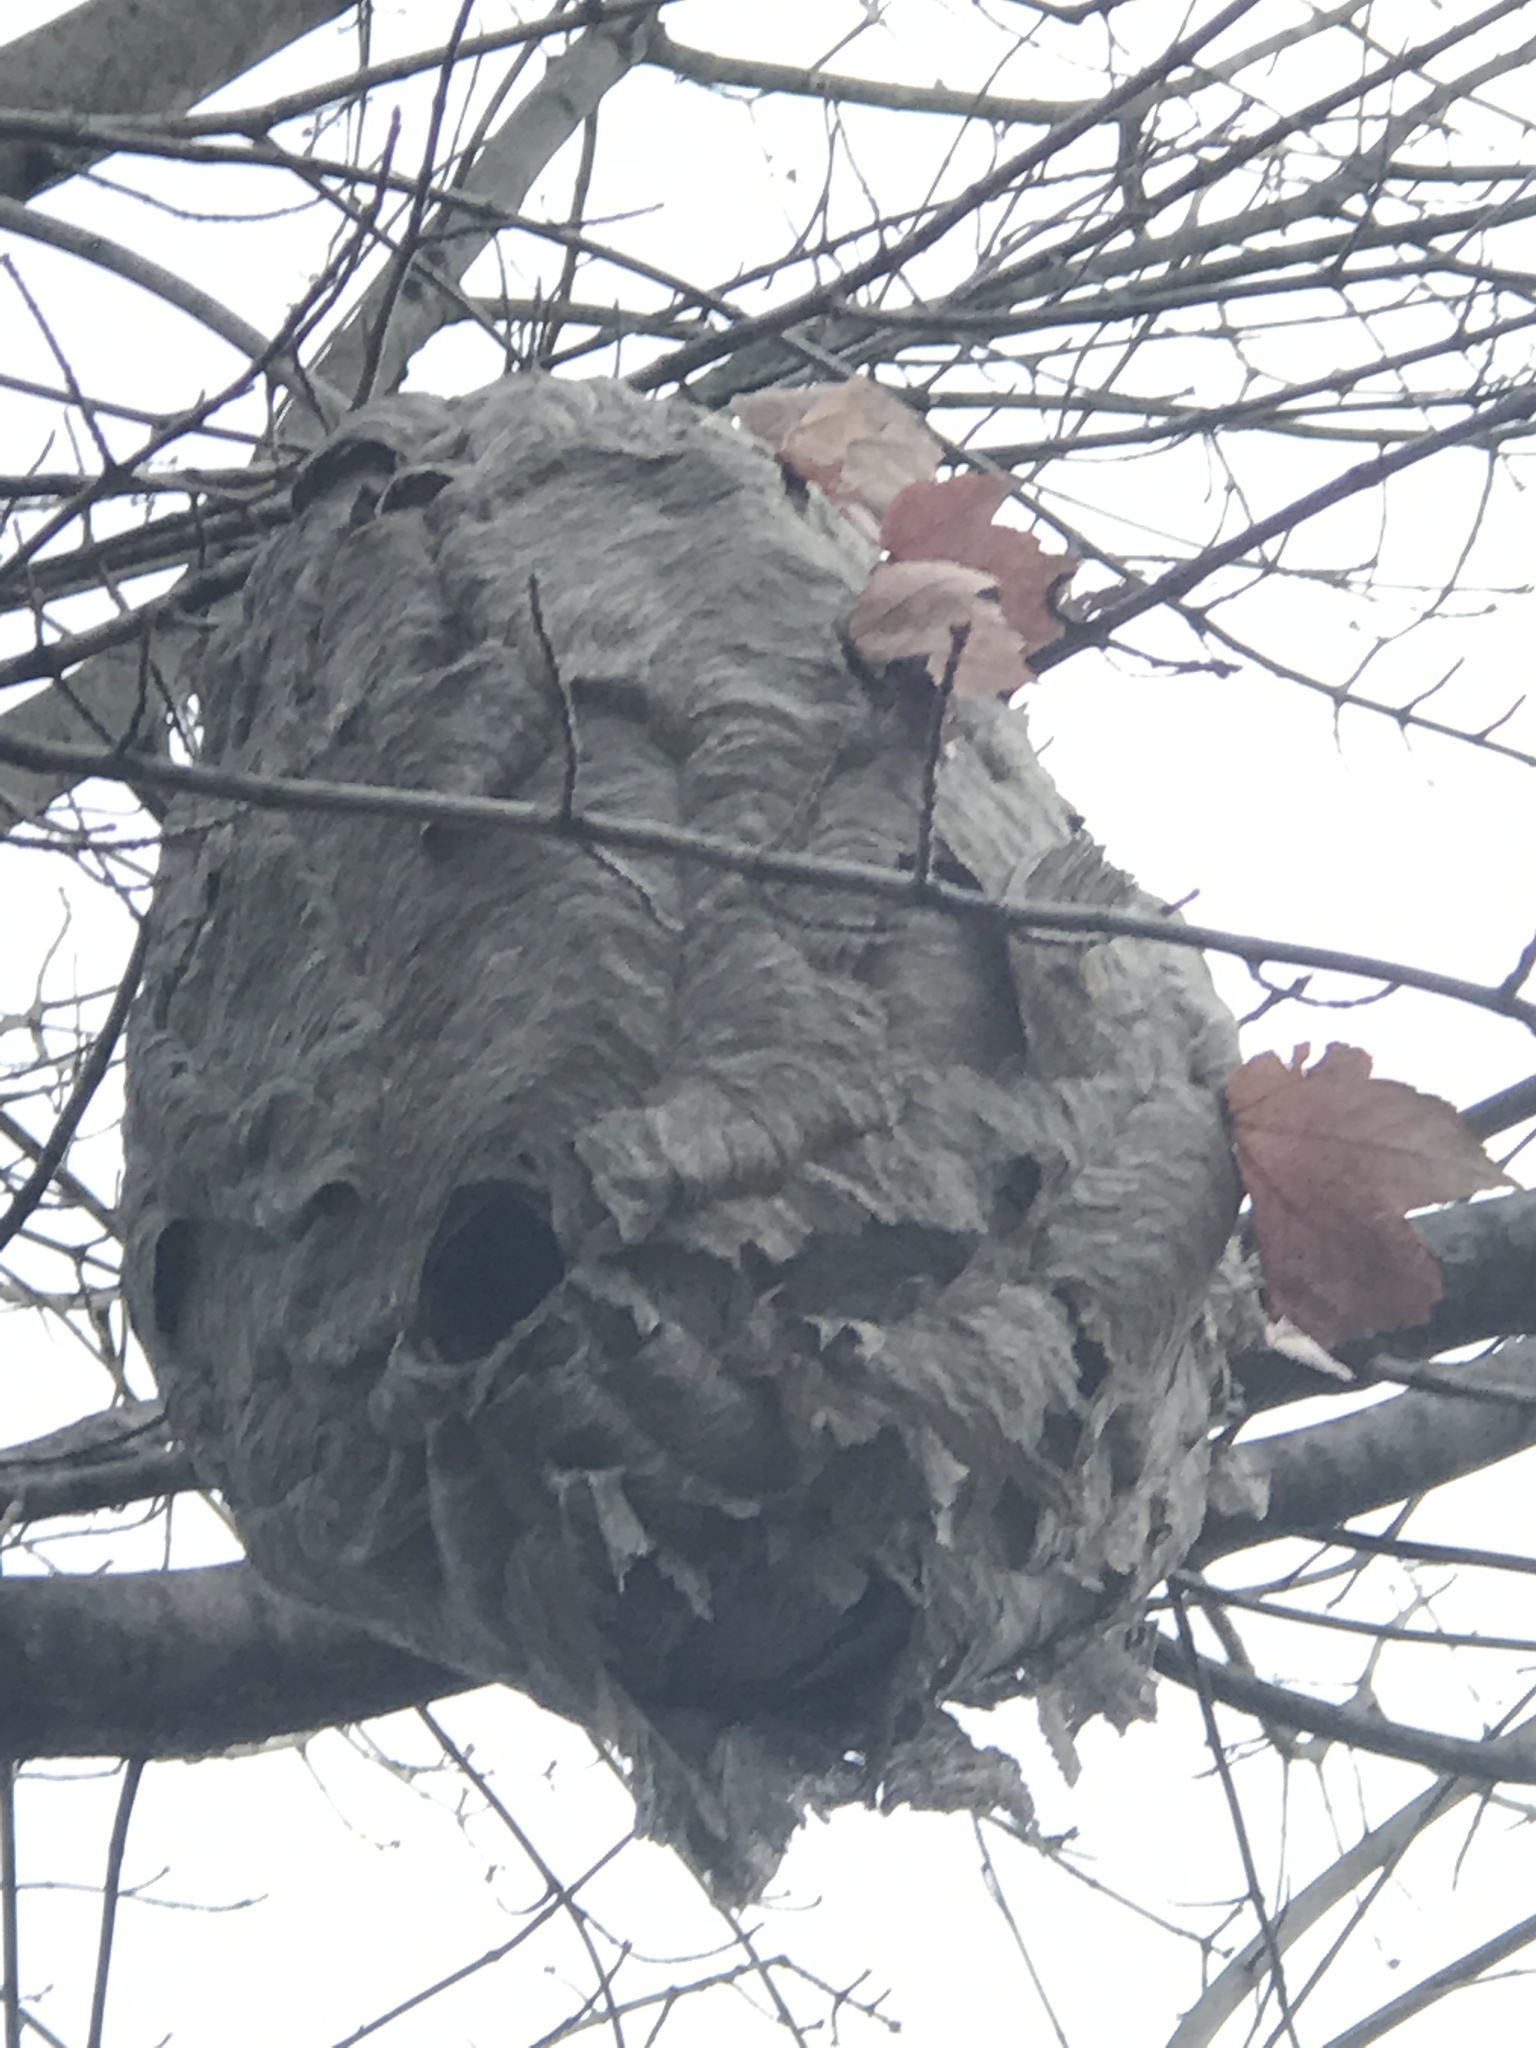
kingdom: Animalia
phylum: Arthropoda
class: Insecta
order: Hymenoptera
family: Vespidae
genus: Dolichovespula
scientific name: Dolichovespula maculata
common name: Bald-faced hornet
